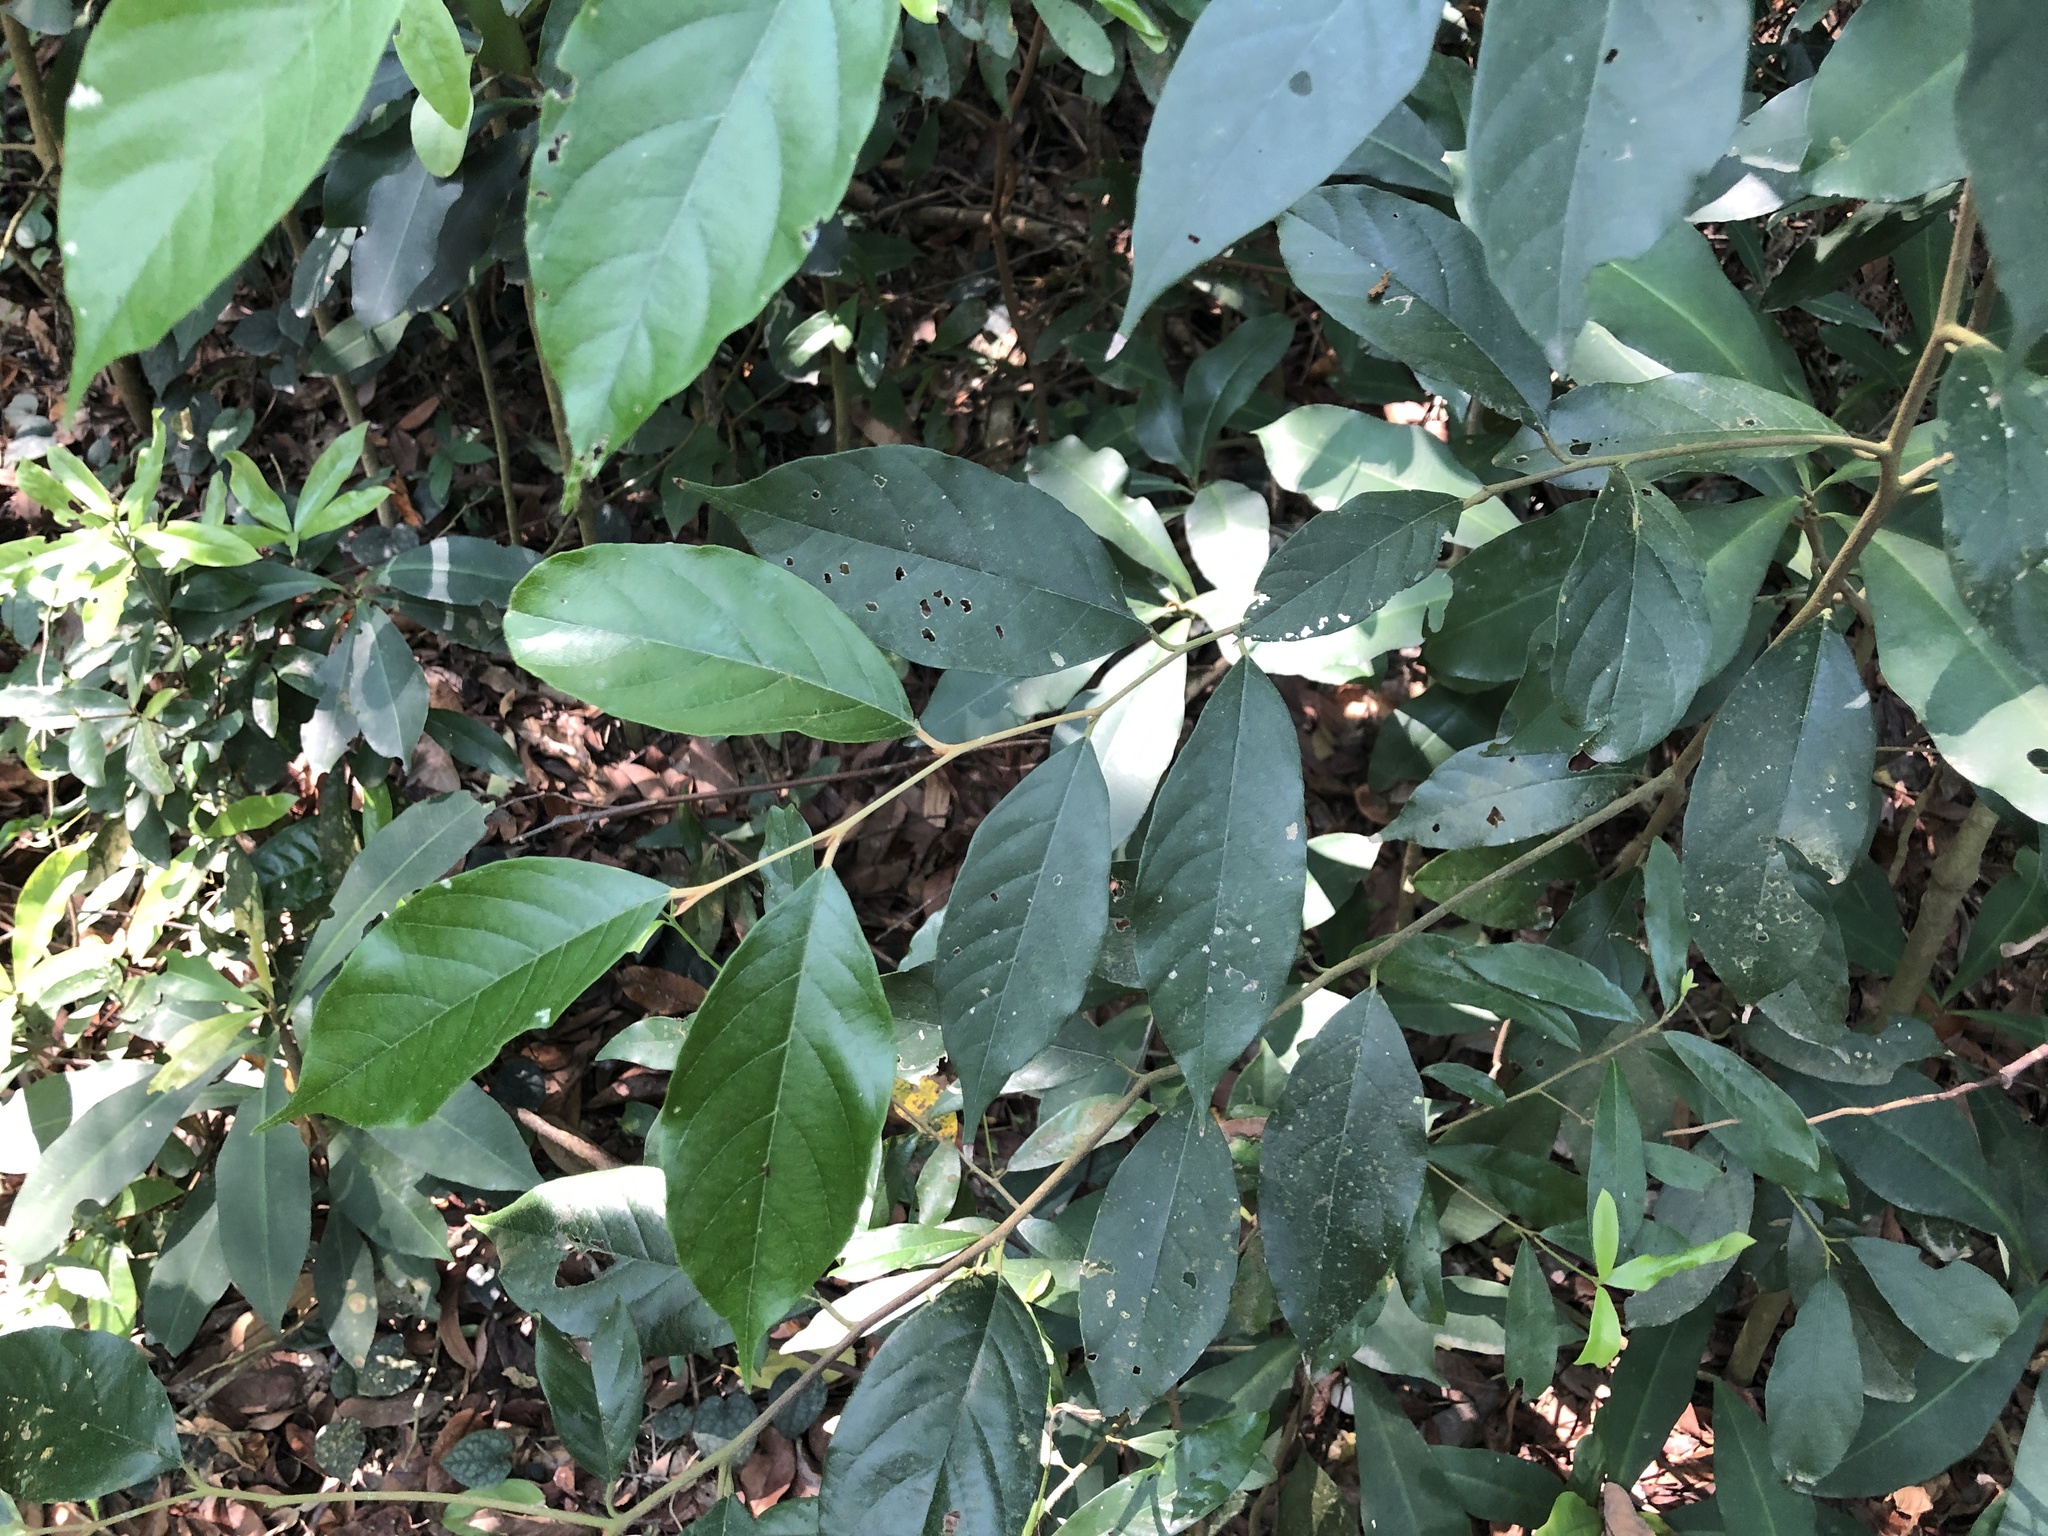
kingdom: Plantae
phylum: Tracheophyta
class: Magnoliopsida
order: Ericales
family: Styracaceae
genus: Styrax
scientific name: Styrax suberifolius
